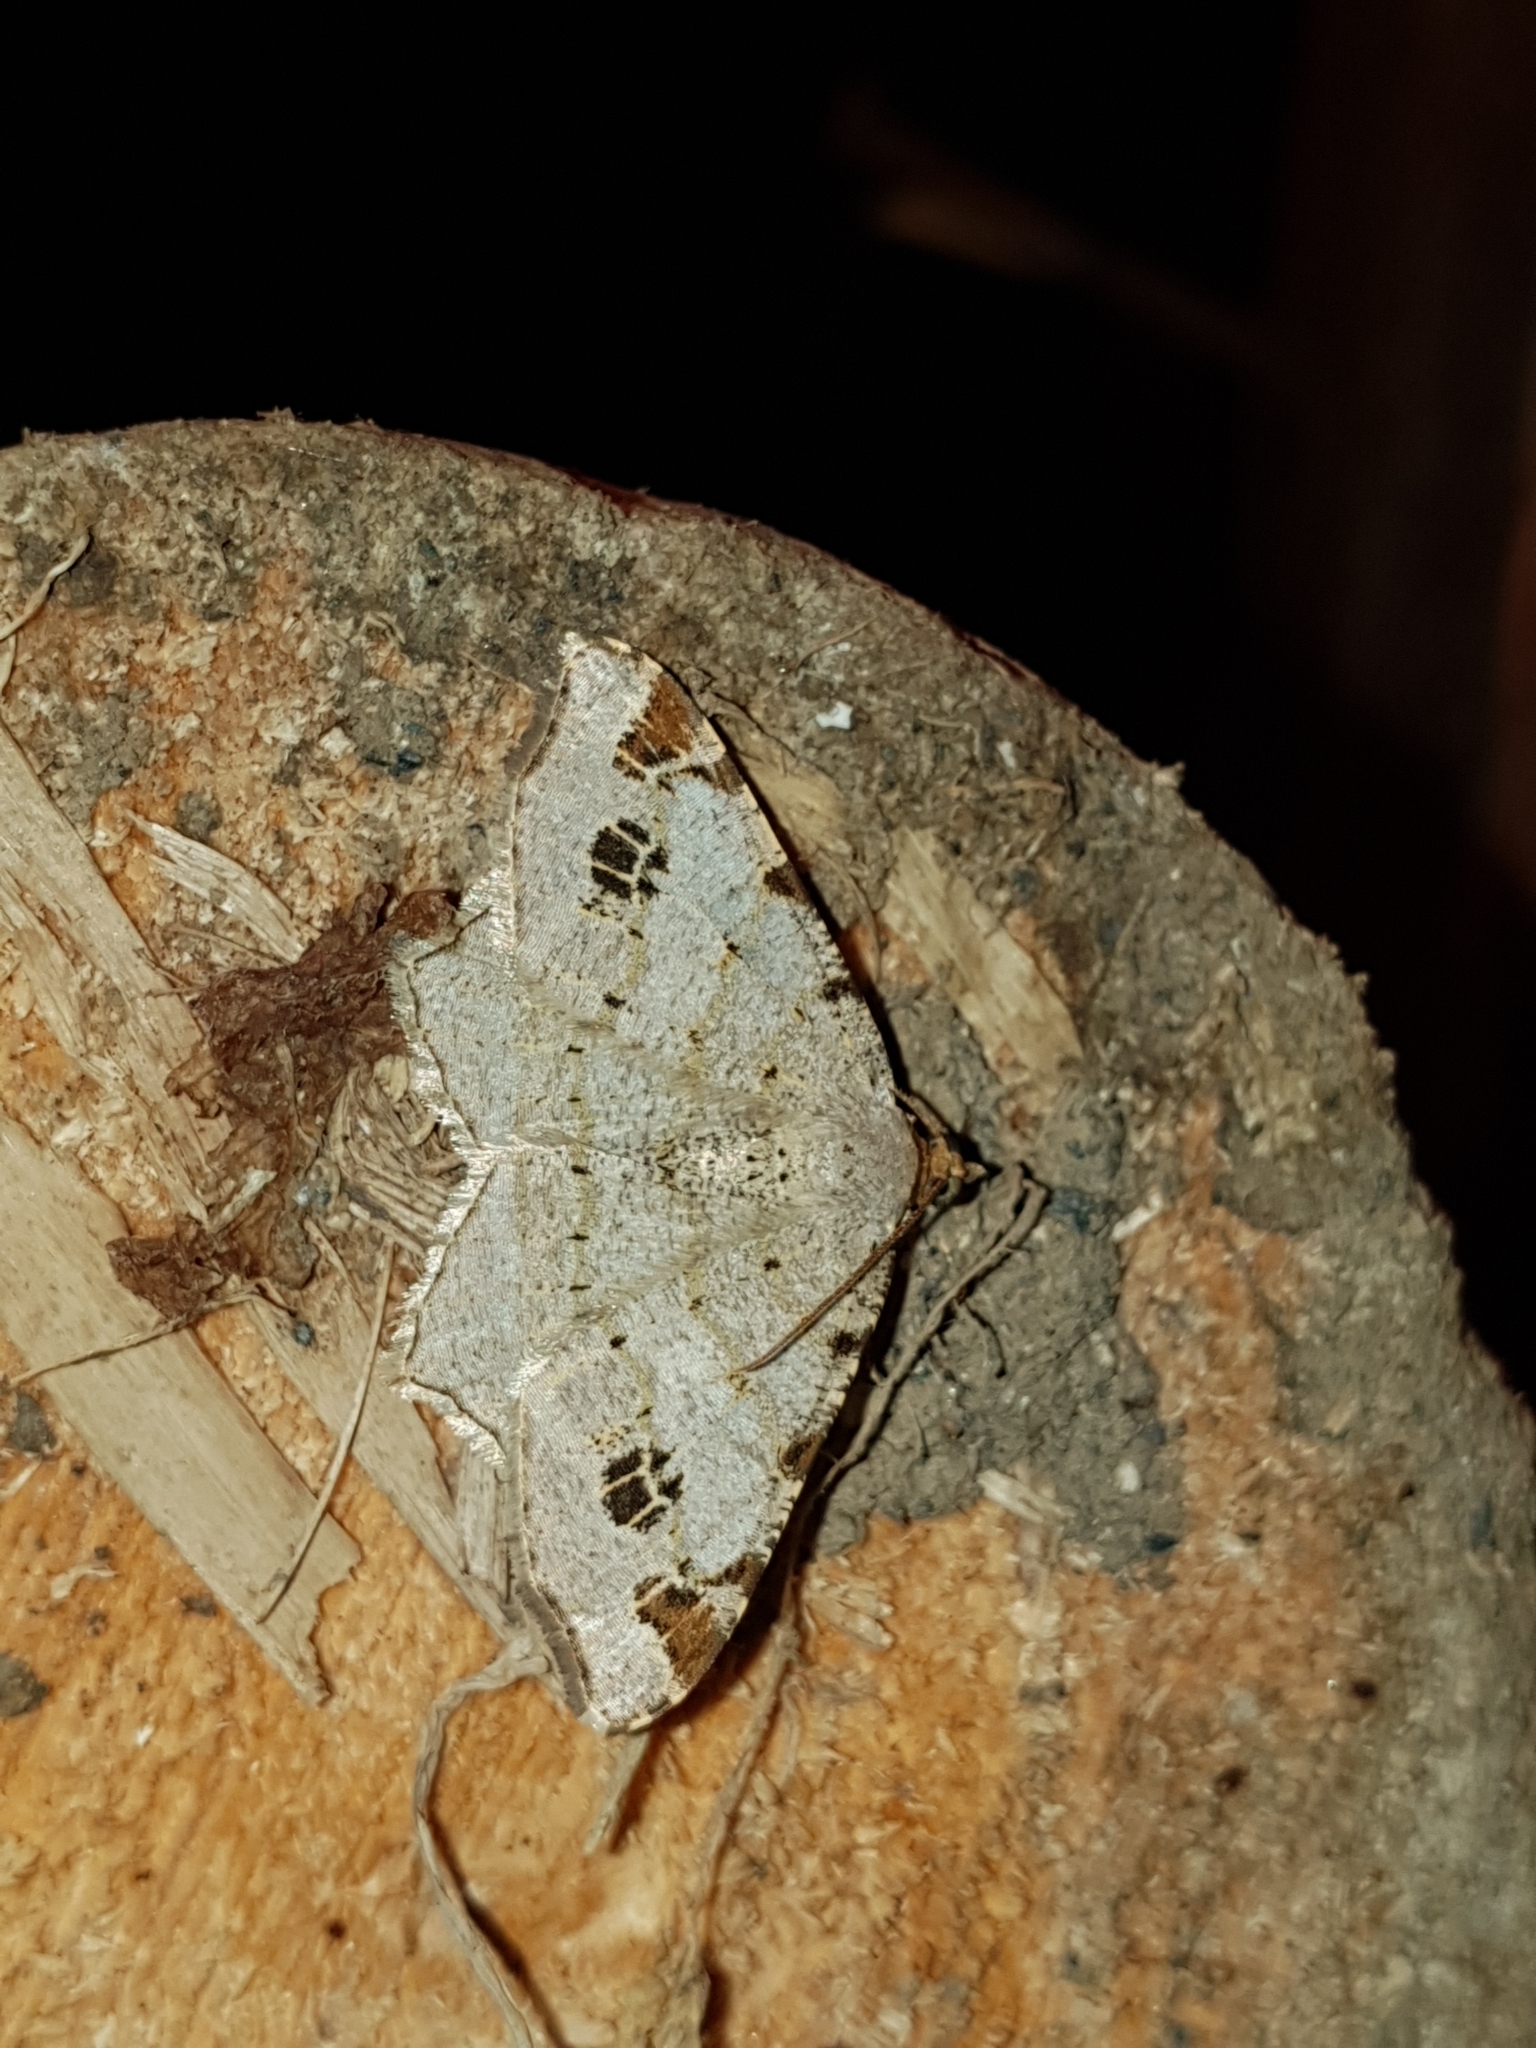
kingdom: Animalia
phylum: Arthropoda
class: Insecta
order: Lepidoptera
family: Geometridae
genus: Macaria
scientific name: Macaria notata
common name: Peacock moth
